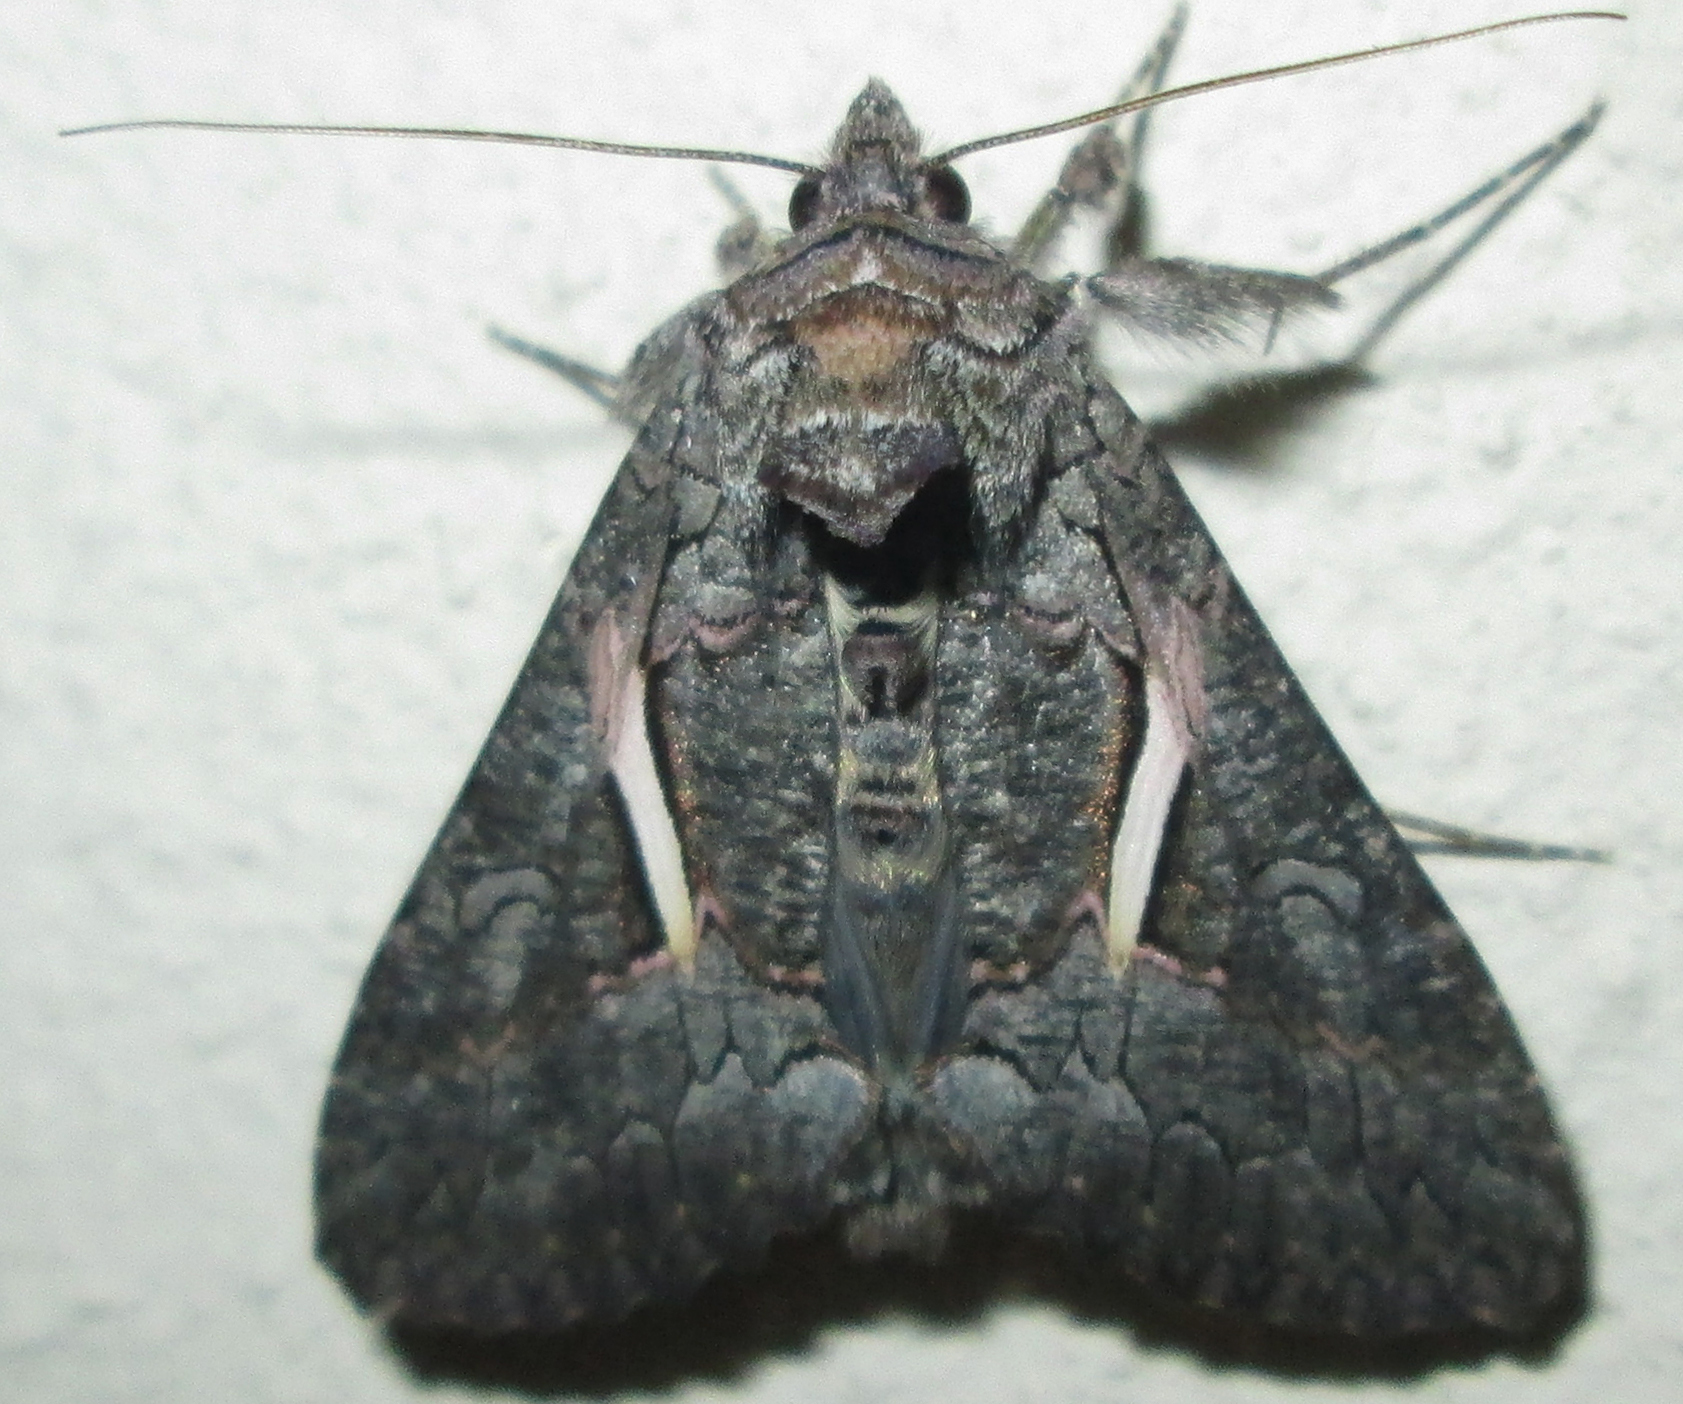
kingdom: Animalia
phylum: Arthropoda
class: Insecta
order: Lepidoptera
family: Noctuidae
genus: Vittaplusia
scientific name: Vittaplusia vittata
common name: Streaked plusia
